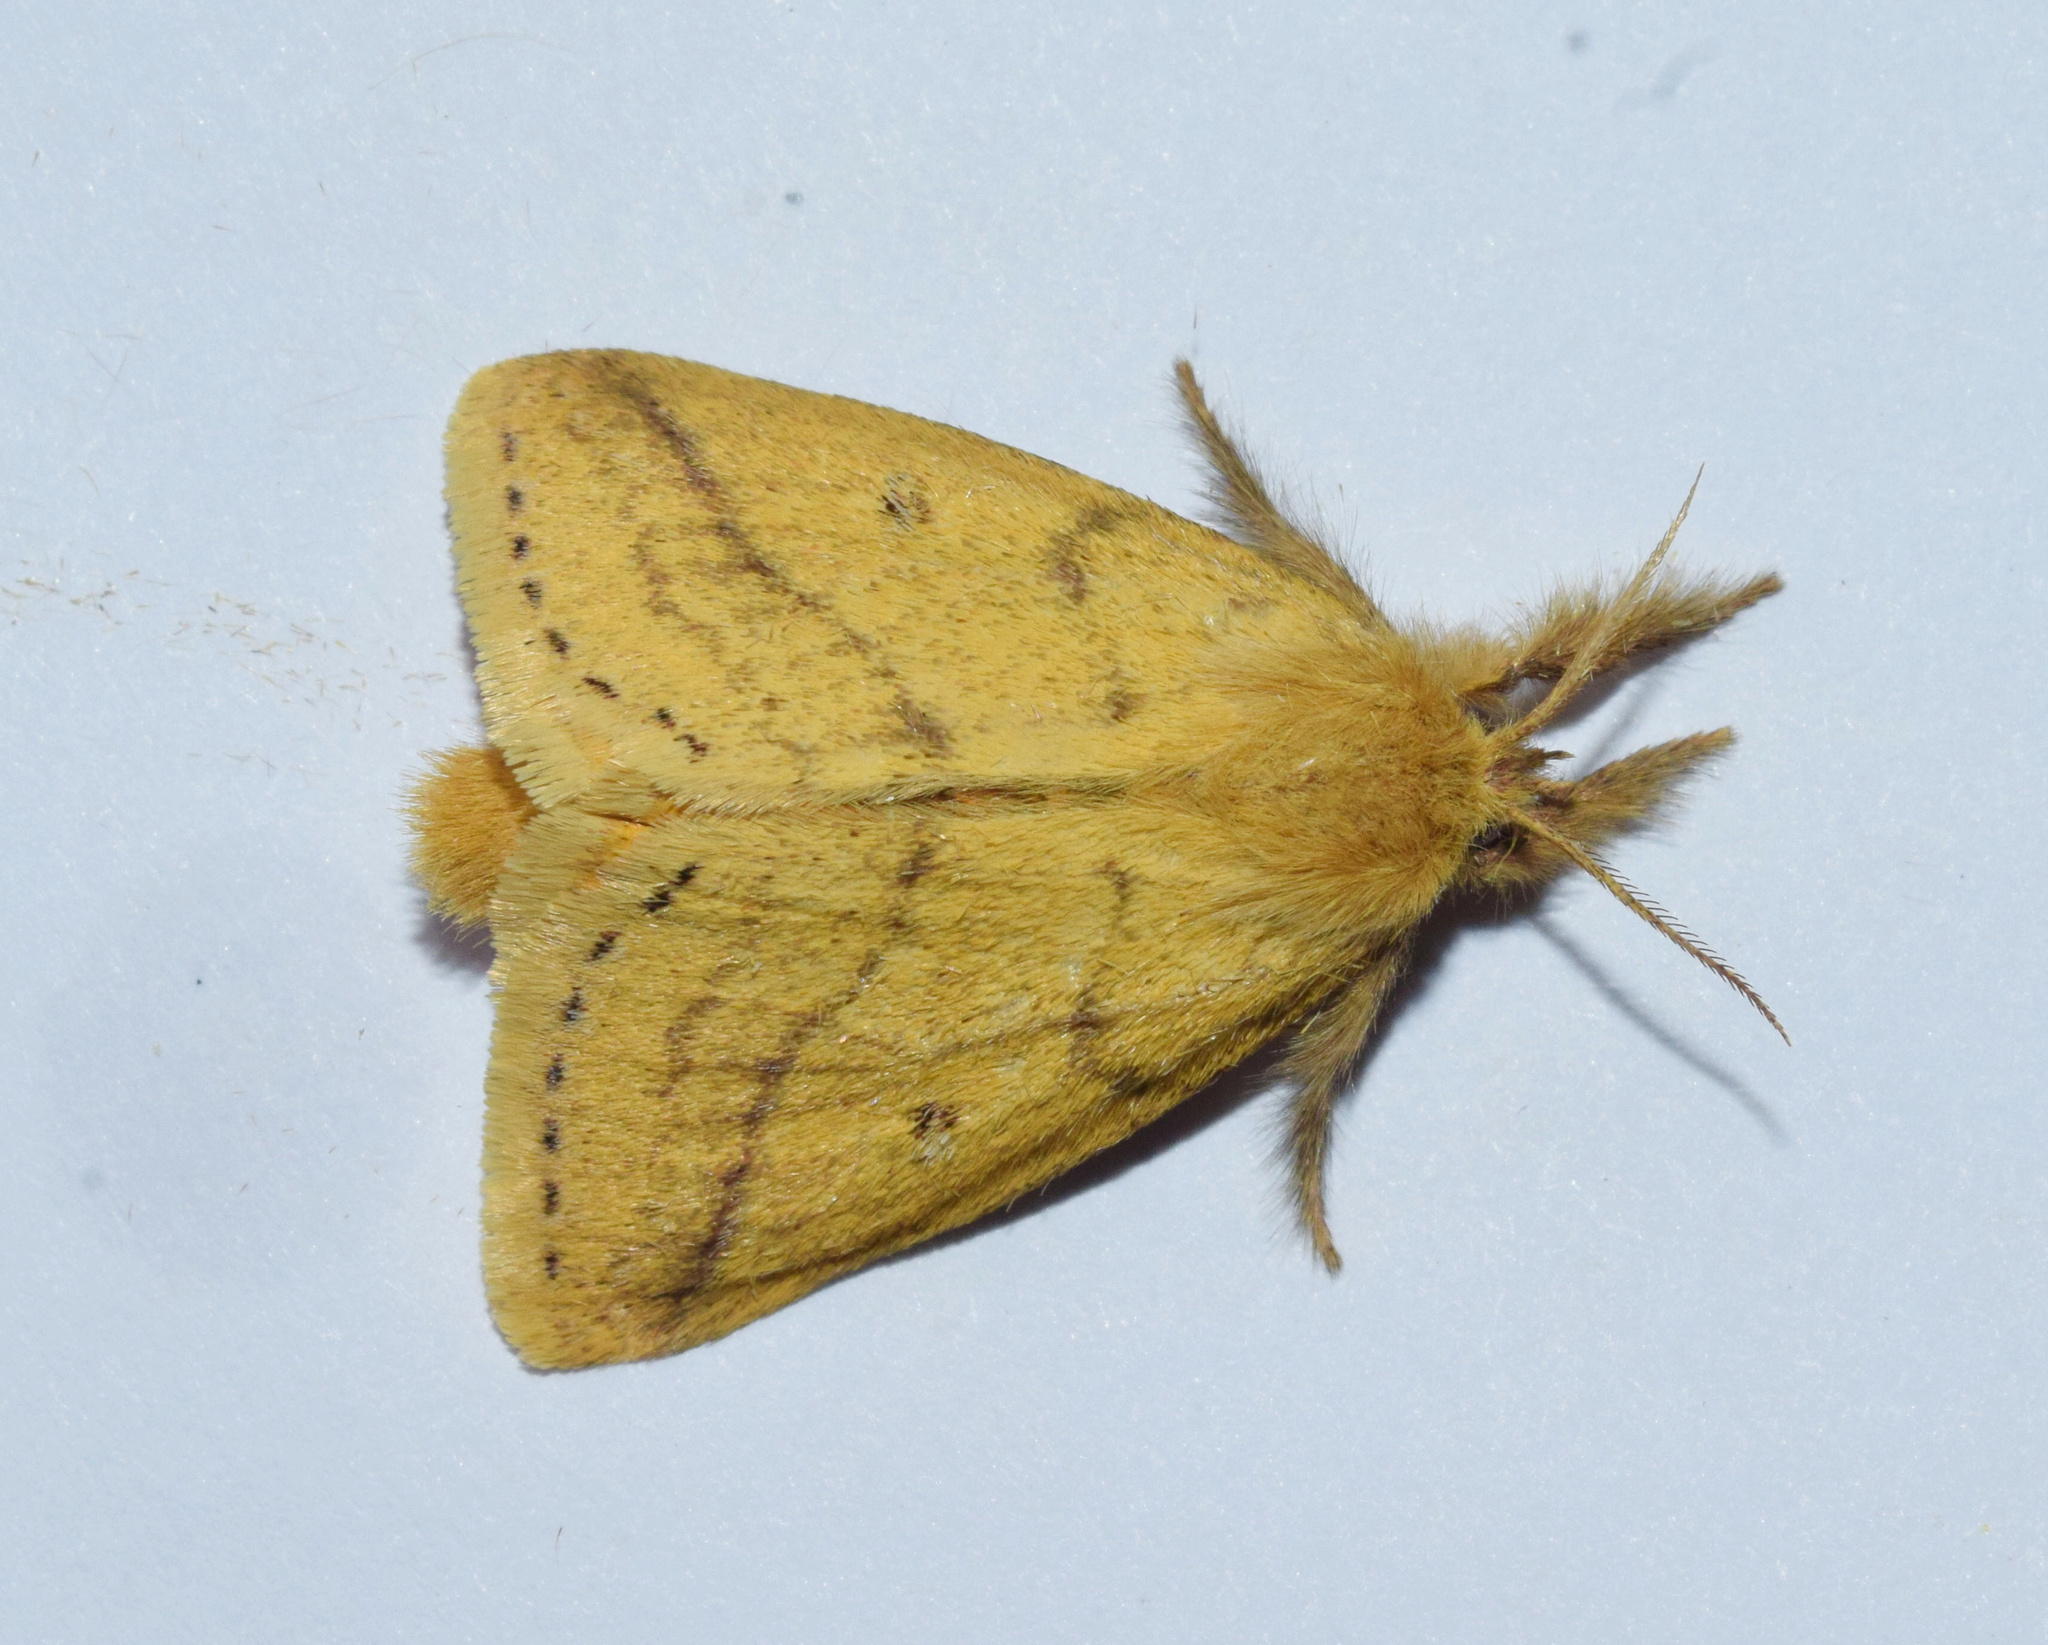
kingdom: Animalia
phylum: Arthropoda
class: Insecta
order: Lepidoptera
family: Erebidae
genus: Aroa
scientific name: Aroa discalis
